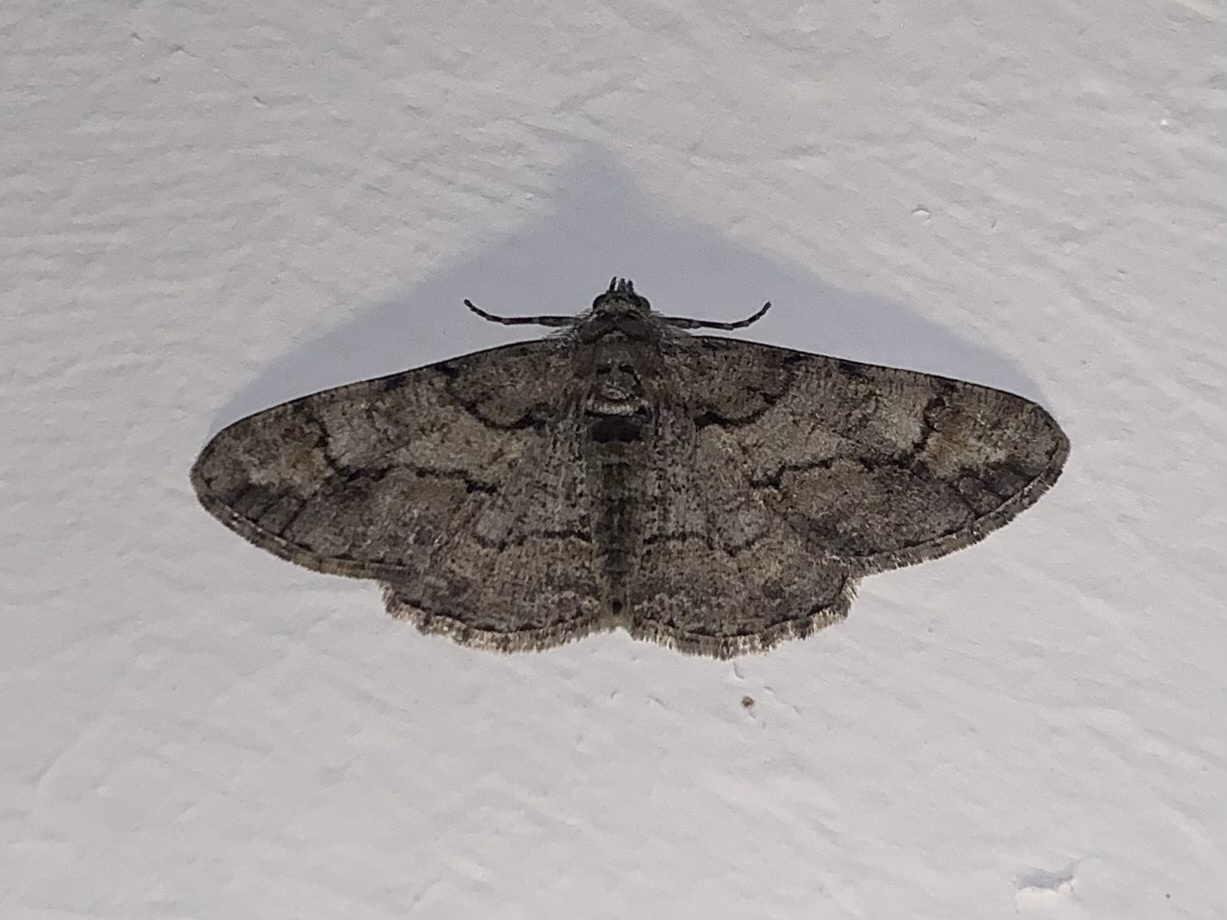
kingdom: Animalia
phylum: Arthropoda
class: Insecta
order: Lepidoptera
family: Geometridae
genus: Cleora
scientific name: Cleora cinctaria
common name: Ringed carpet
